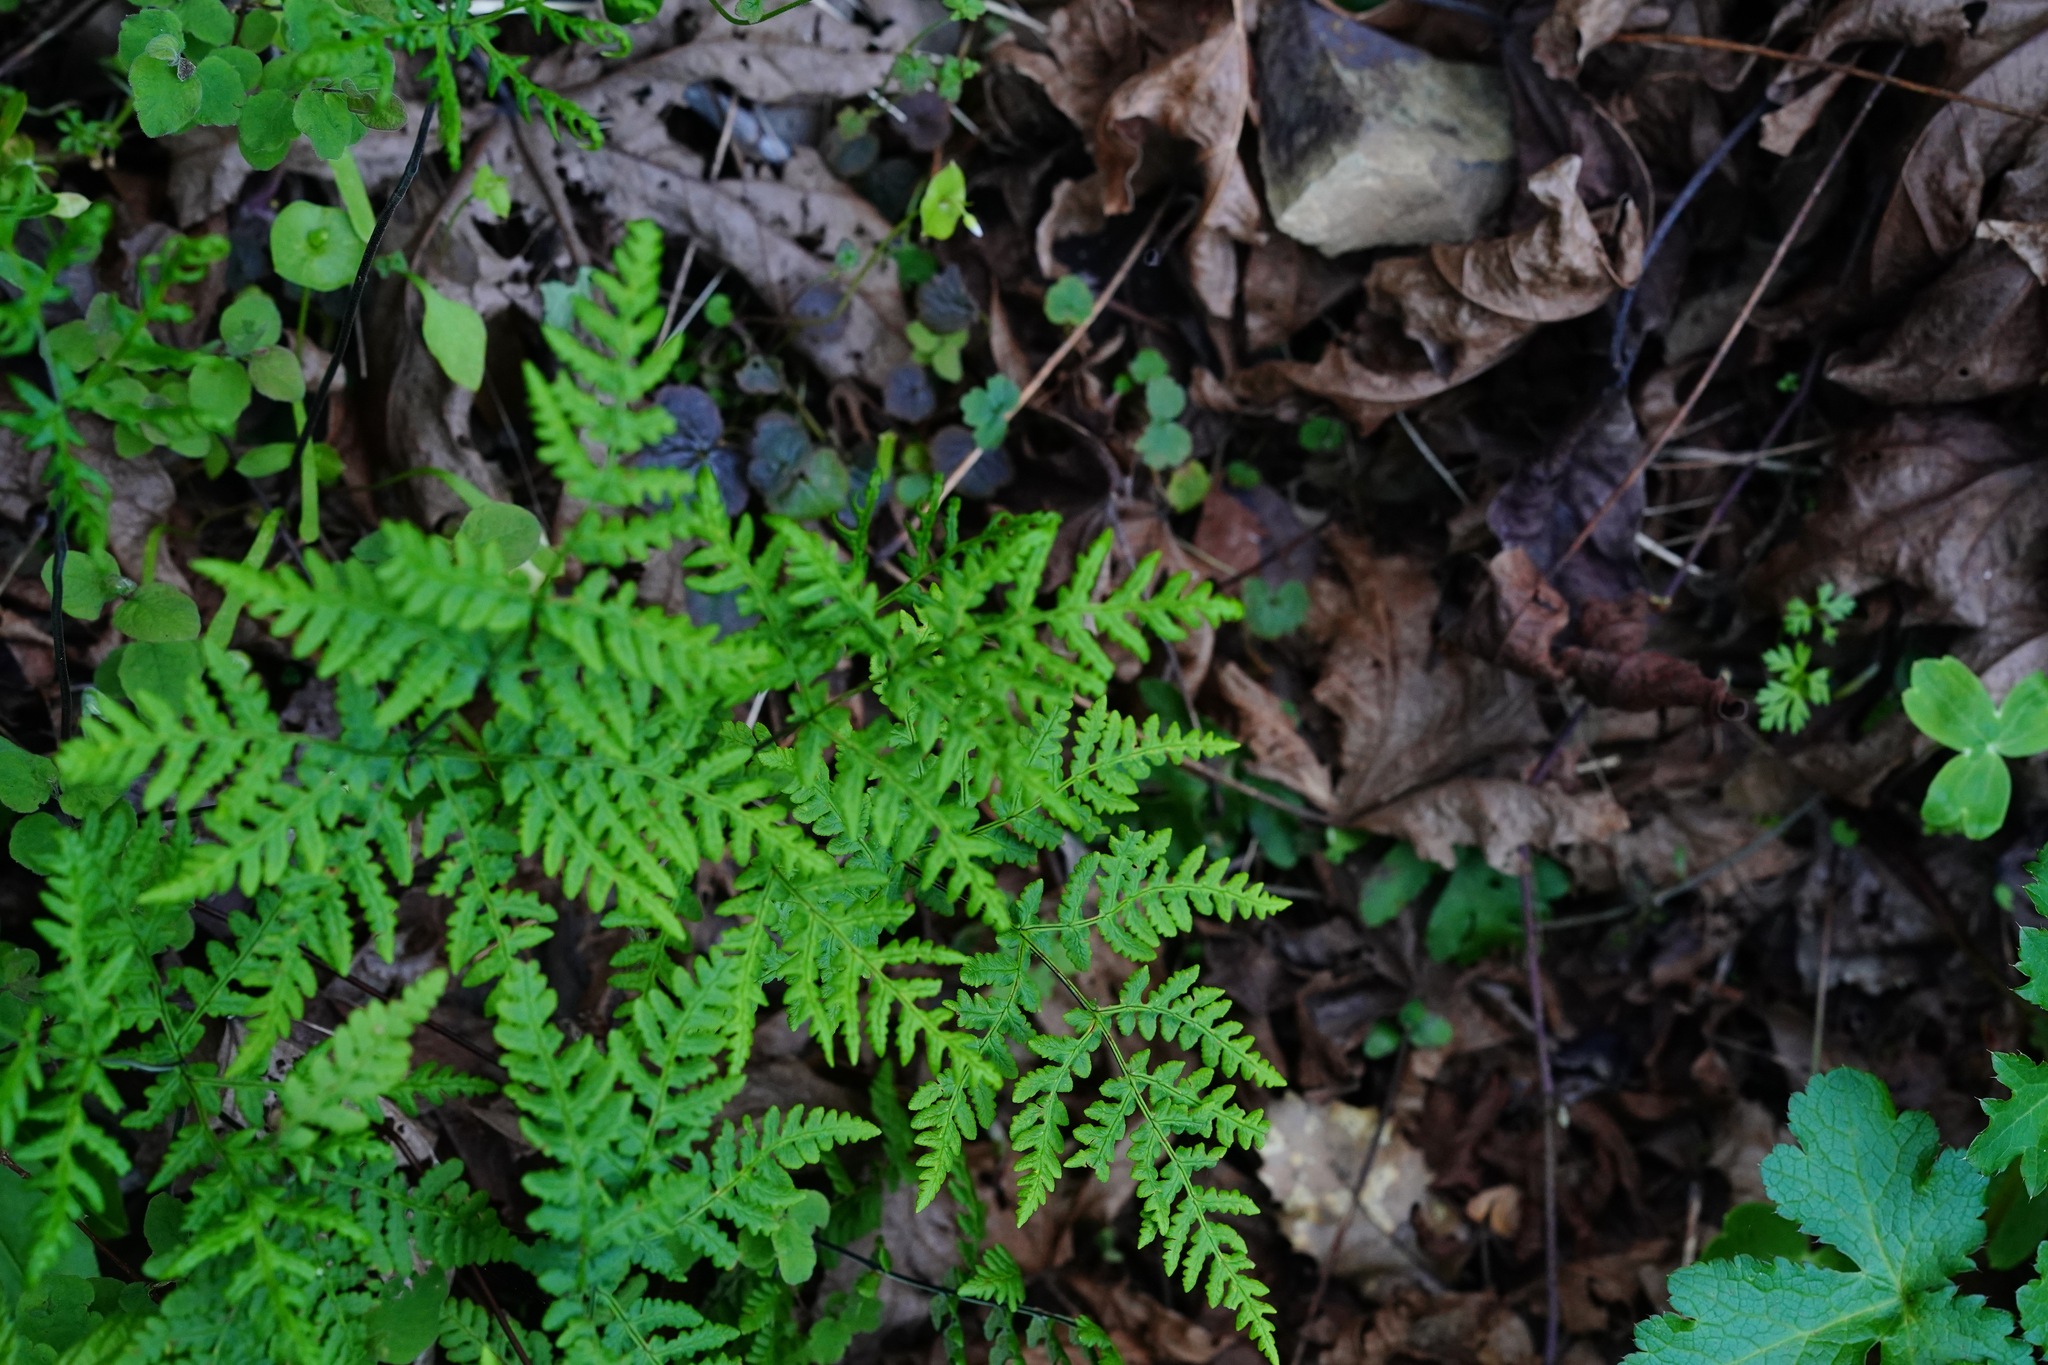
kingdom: Plantae
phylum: Tracheophyta
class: Polypodiopsida
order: Polypodiales
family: Pteridaceae
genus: Pentagramma
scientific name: Pentagramma triangularis
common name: Gold fern
